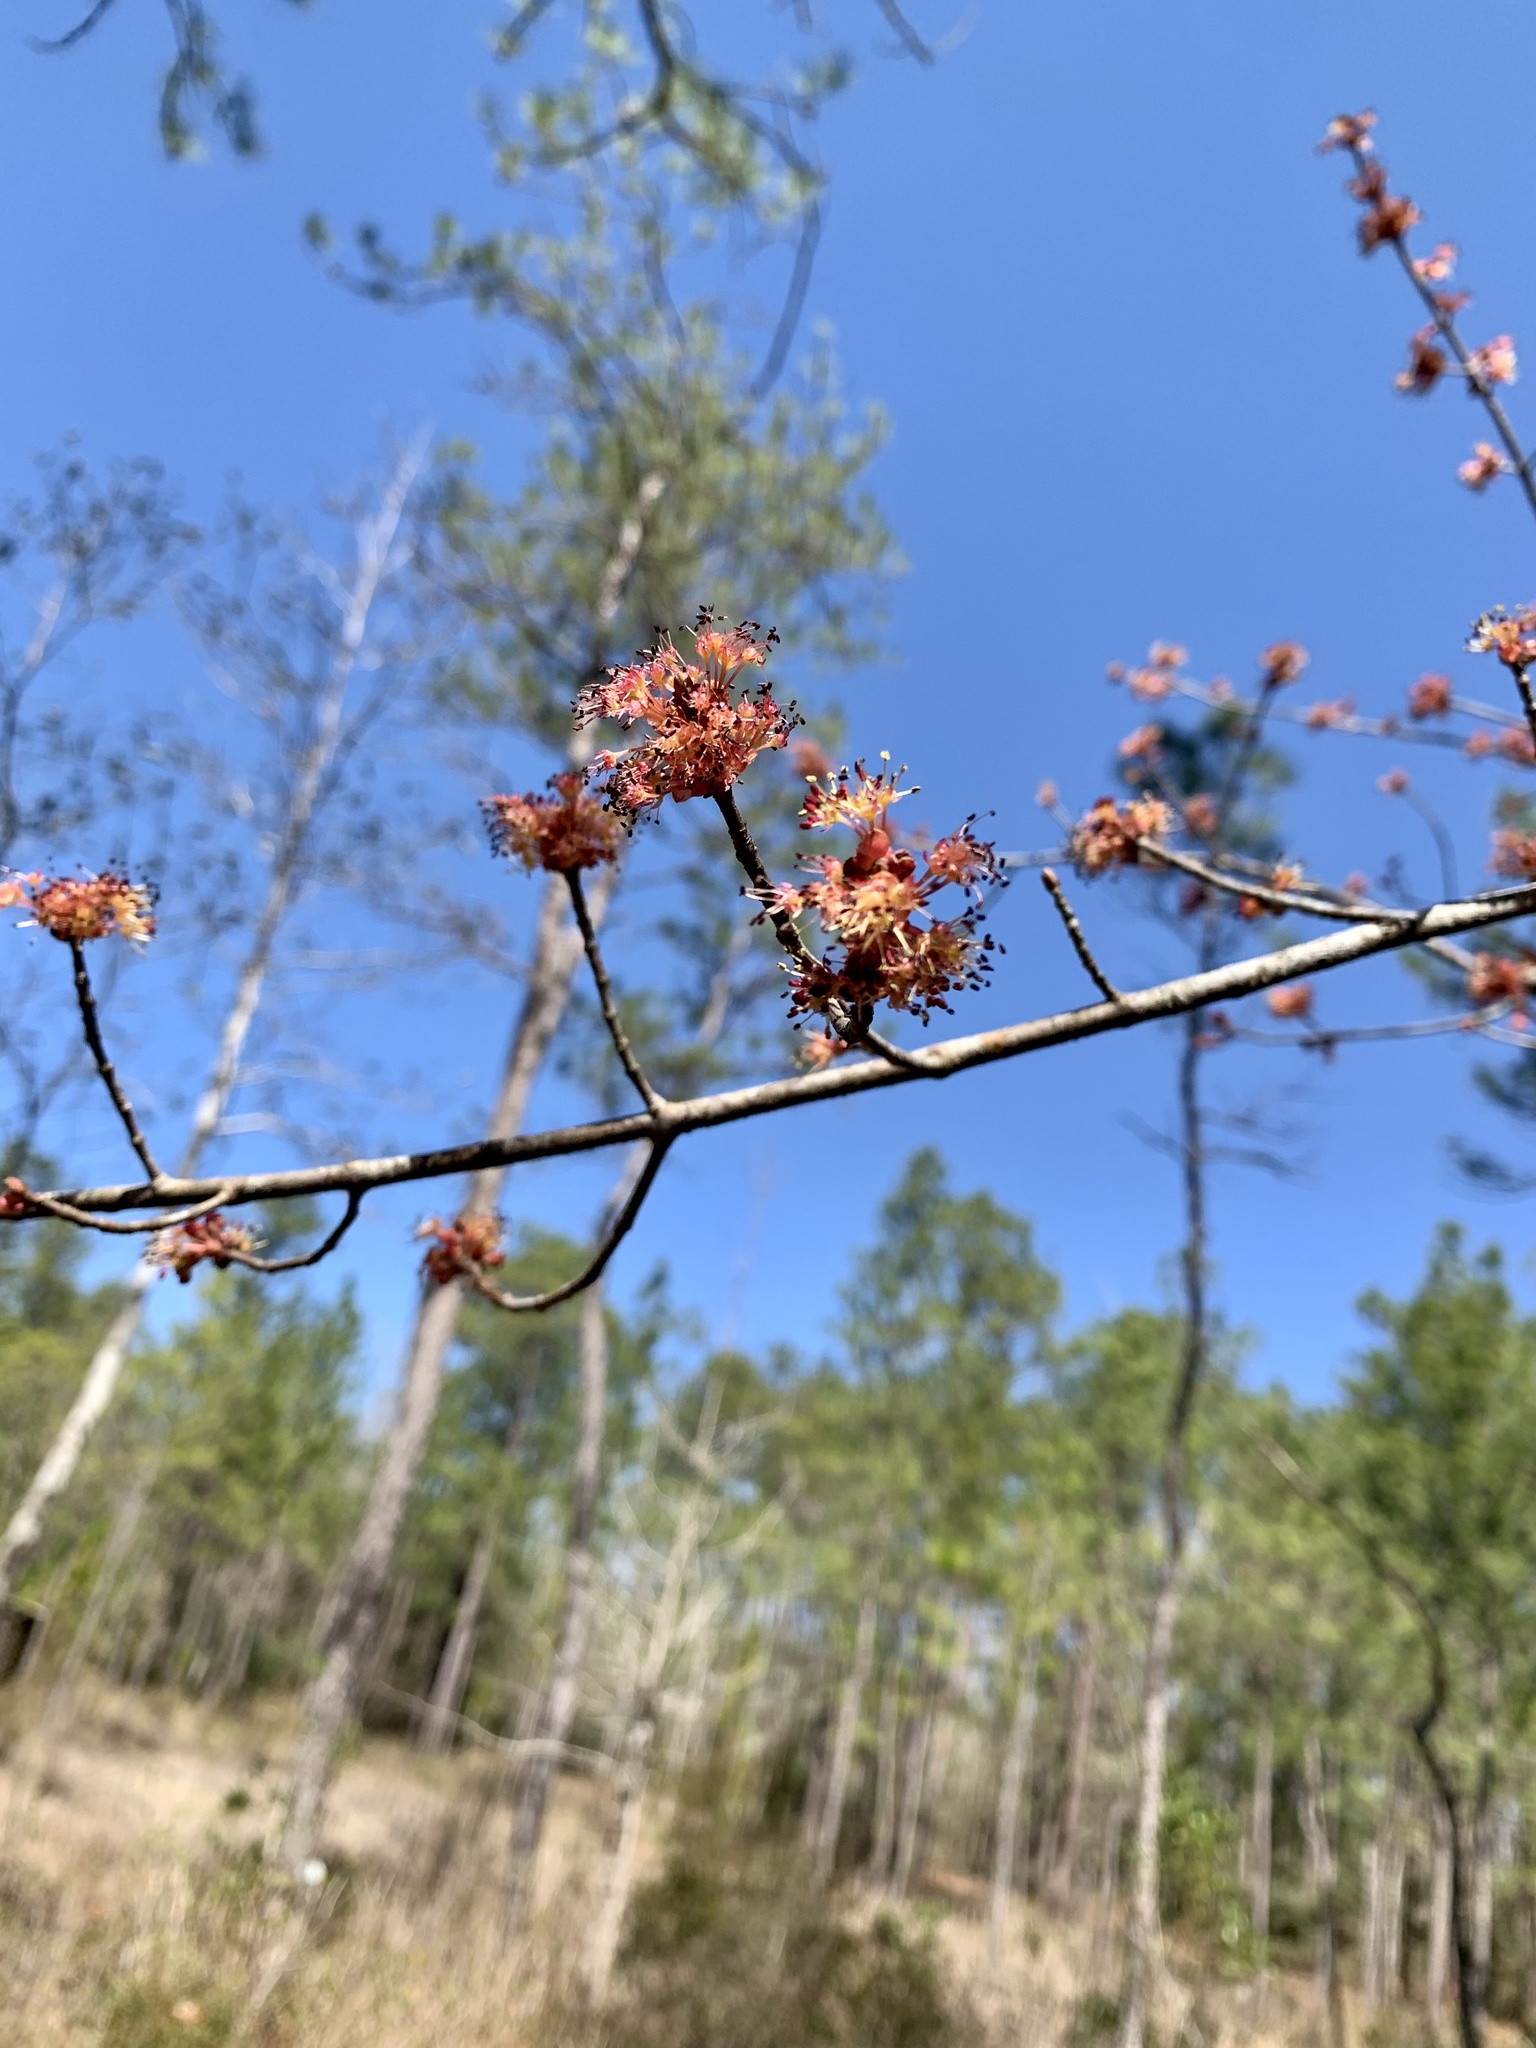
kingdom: Plantae
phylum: Tracheophyta
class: Magnoliopsida
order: Sapindales
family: Sapindaceae
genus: Acer
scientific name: Acer rubrum
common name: Red maple
